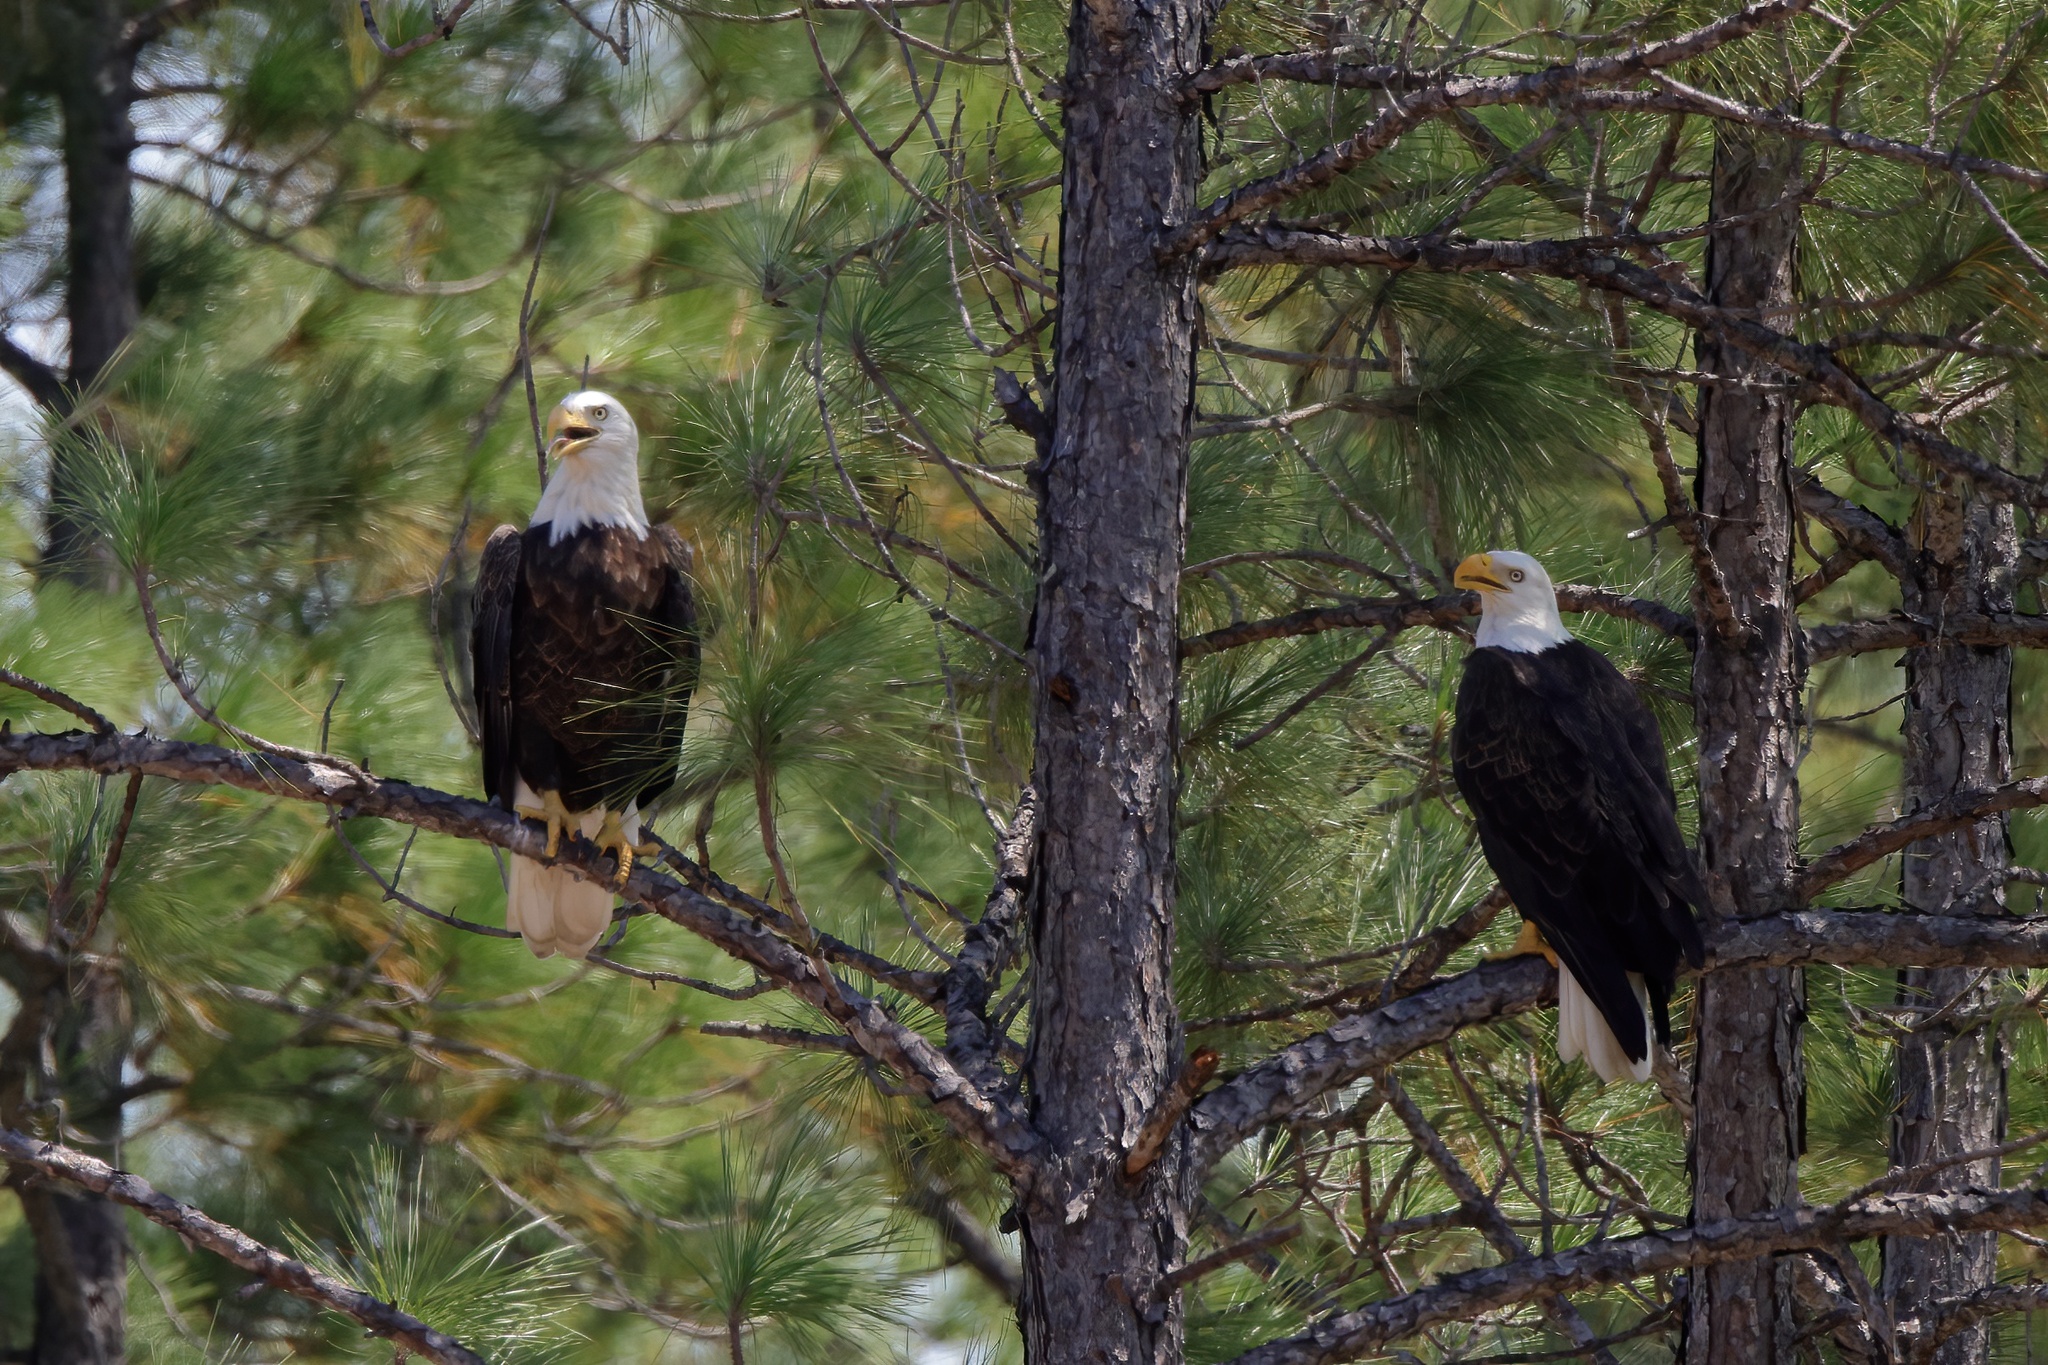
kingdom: Animalia
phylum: Chordata
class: Aves
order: Accipitriformes
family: Accipitridae
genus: Haliaeetus
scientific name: Haliaeetus leucocephalus
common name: Bald eagle
